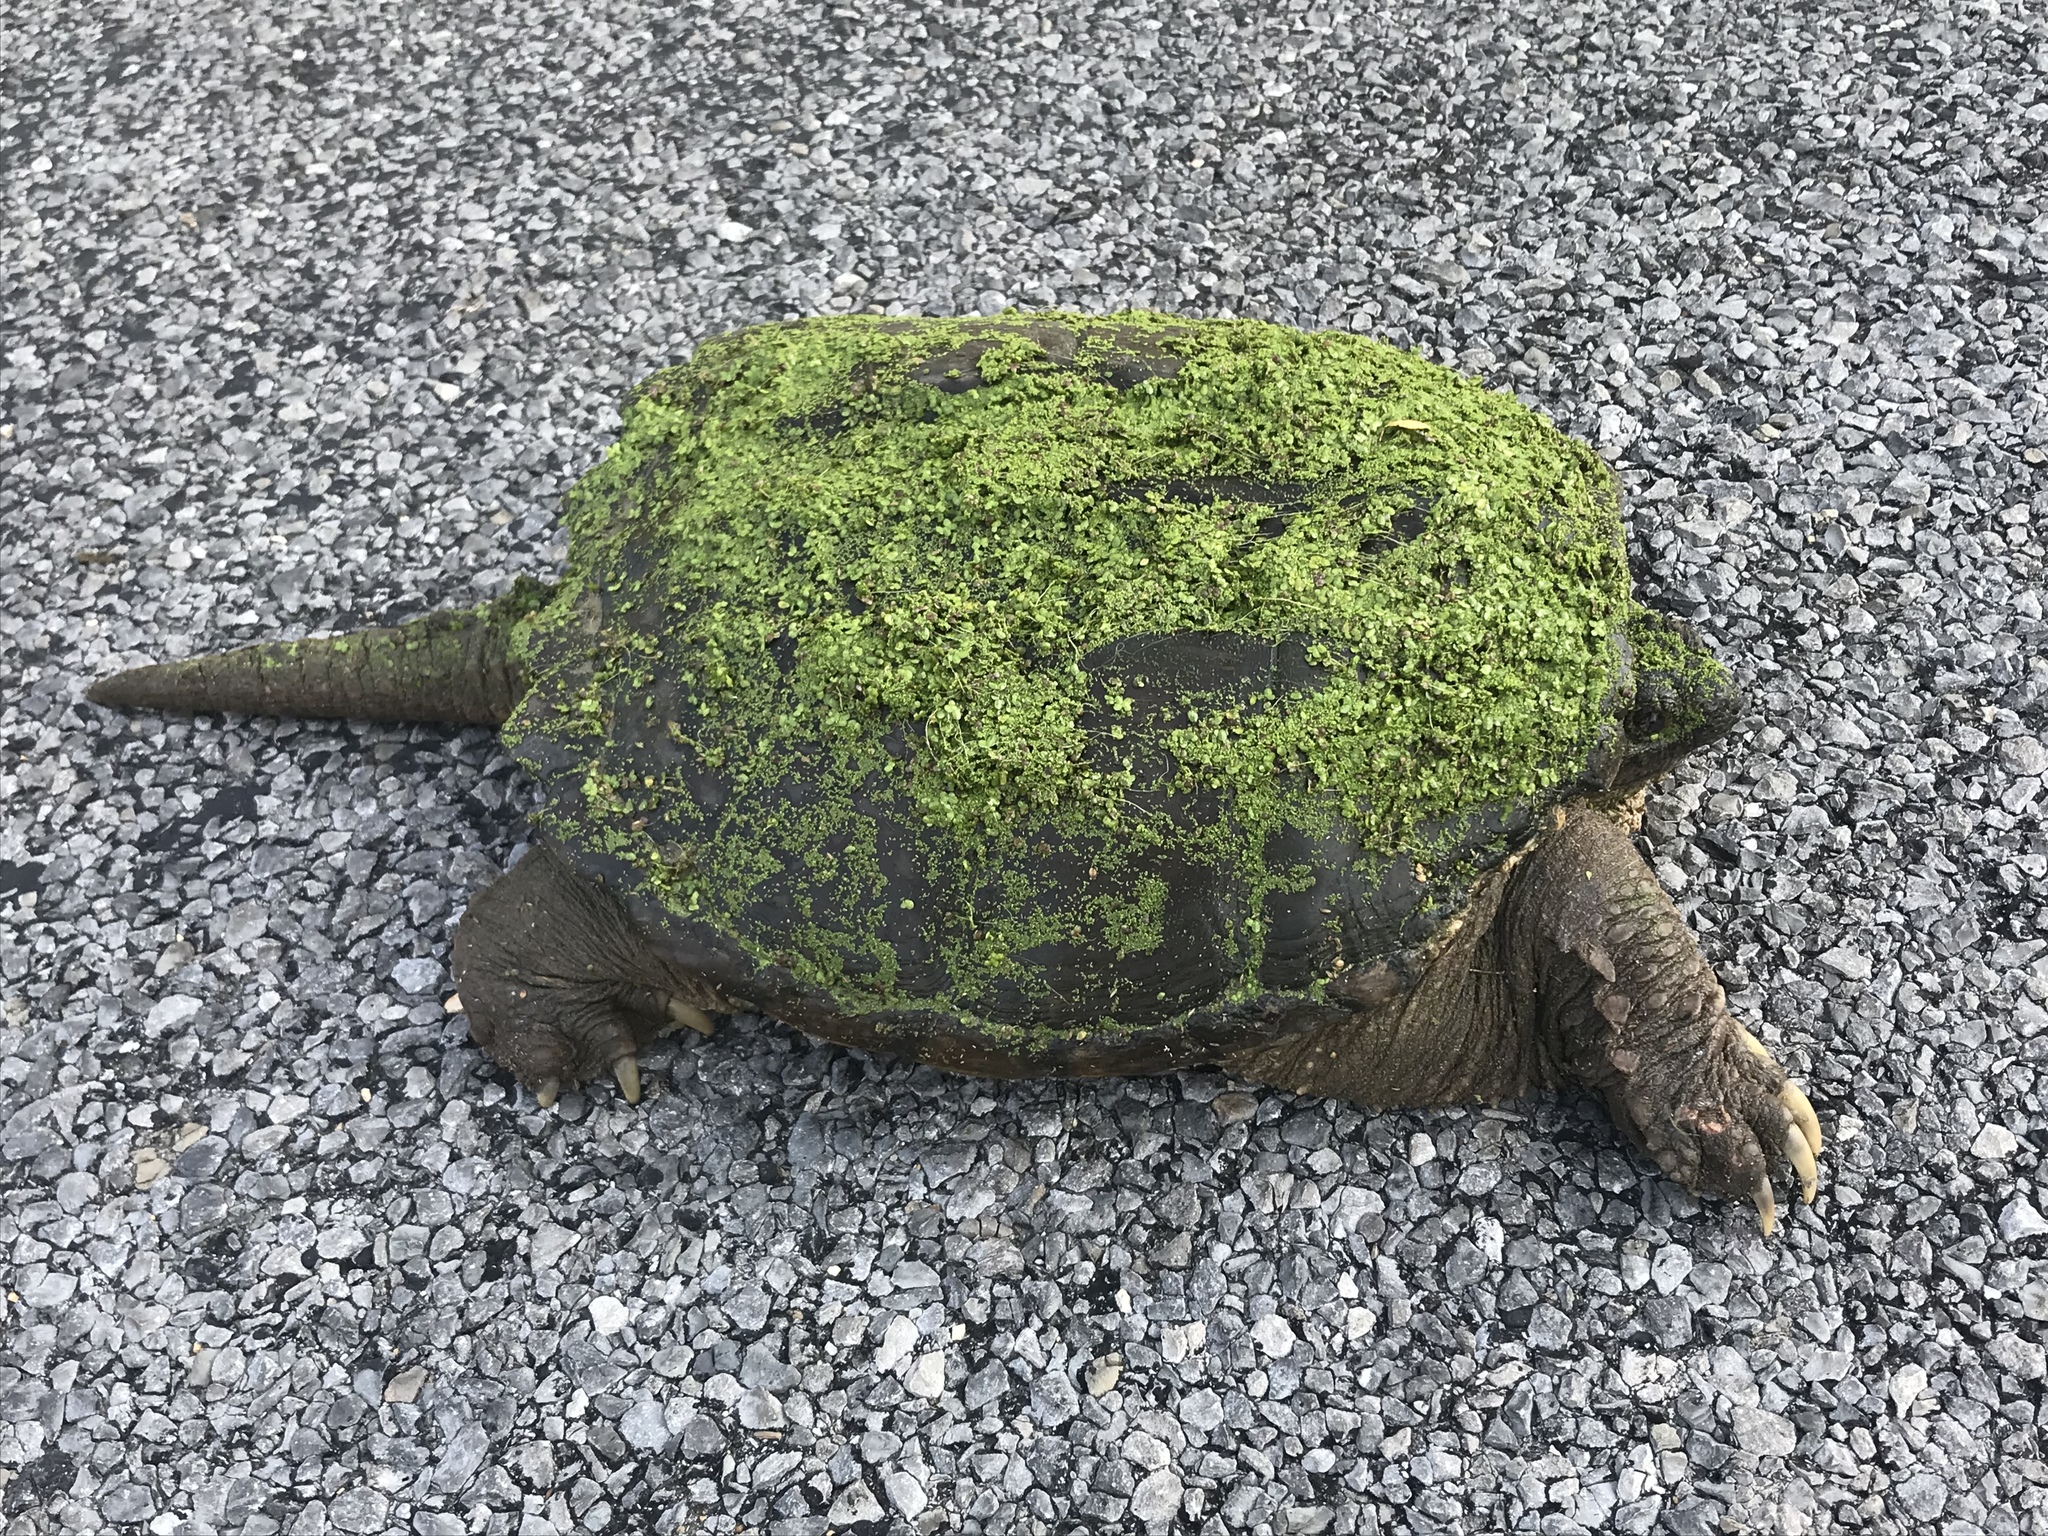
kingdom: Animalia
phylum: Chordata
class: Testudines
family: Chelydridae
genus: Chelydra
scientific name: Chelydra serpentina
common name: Common snapping turtle
